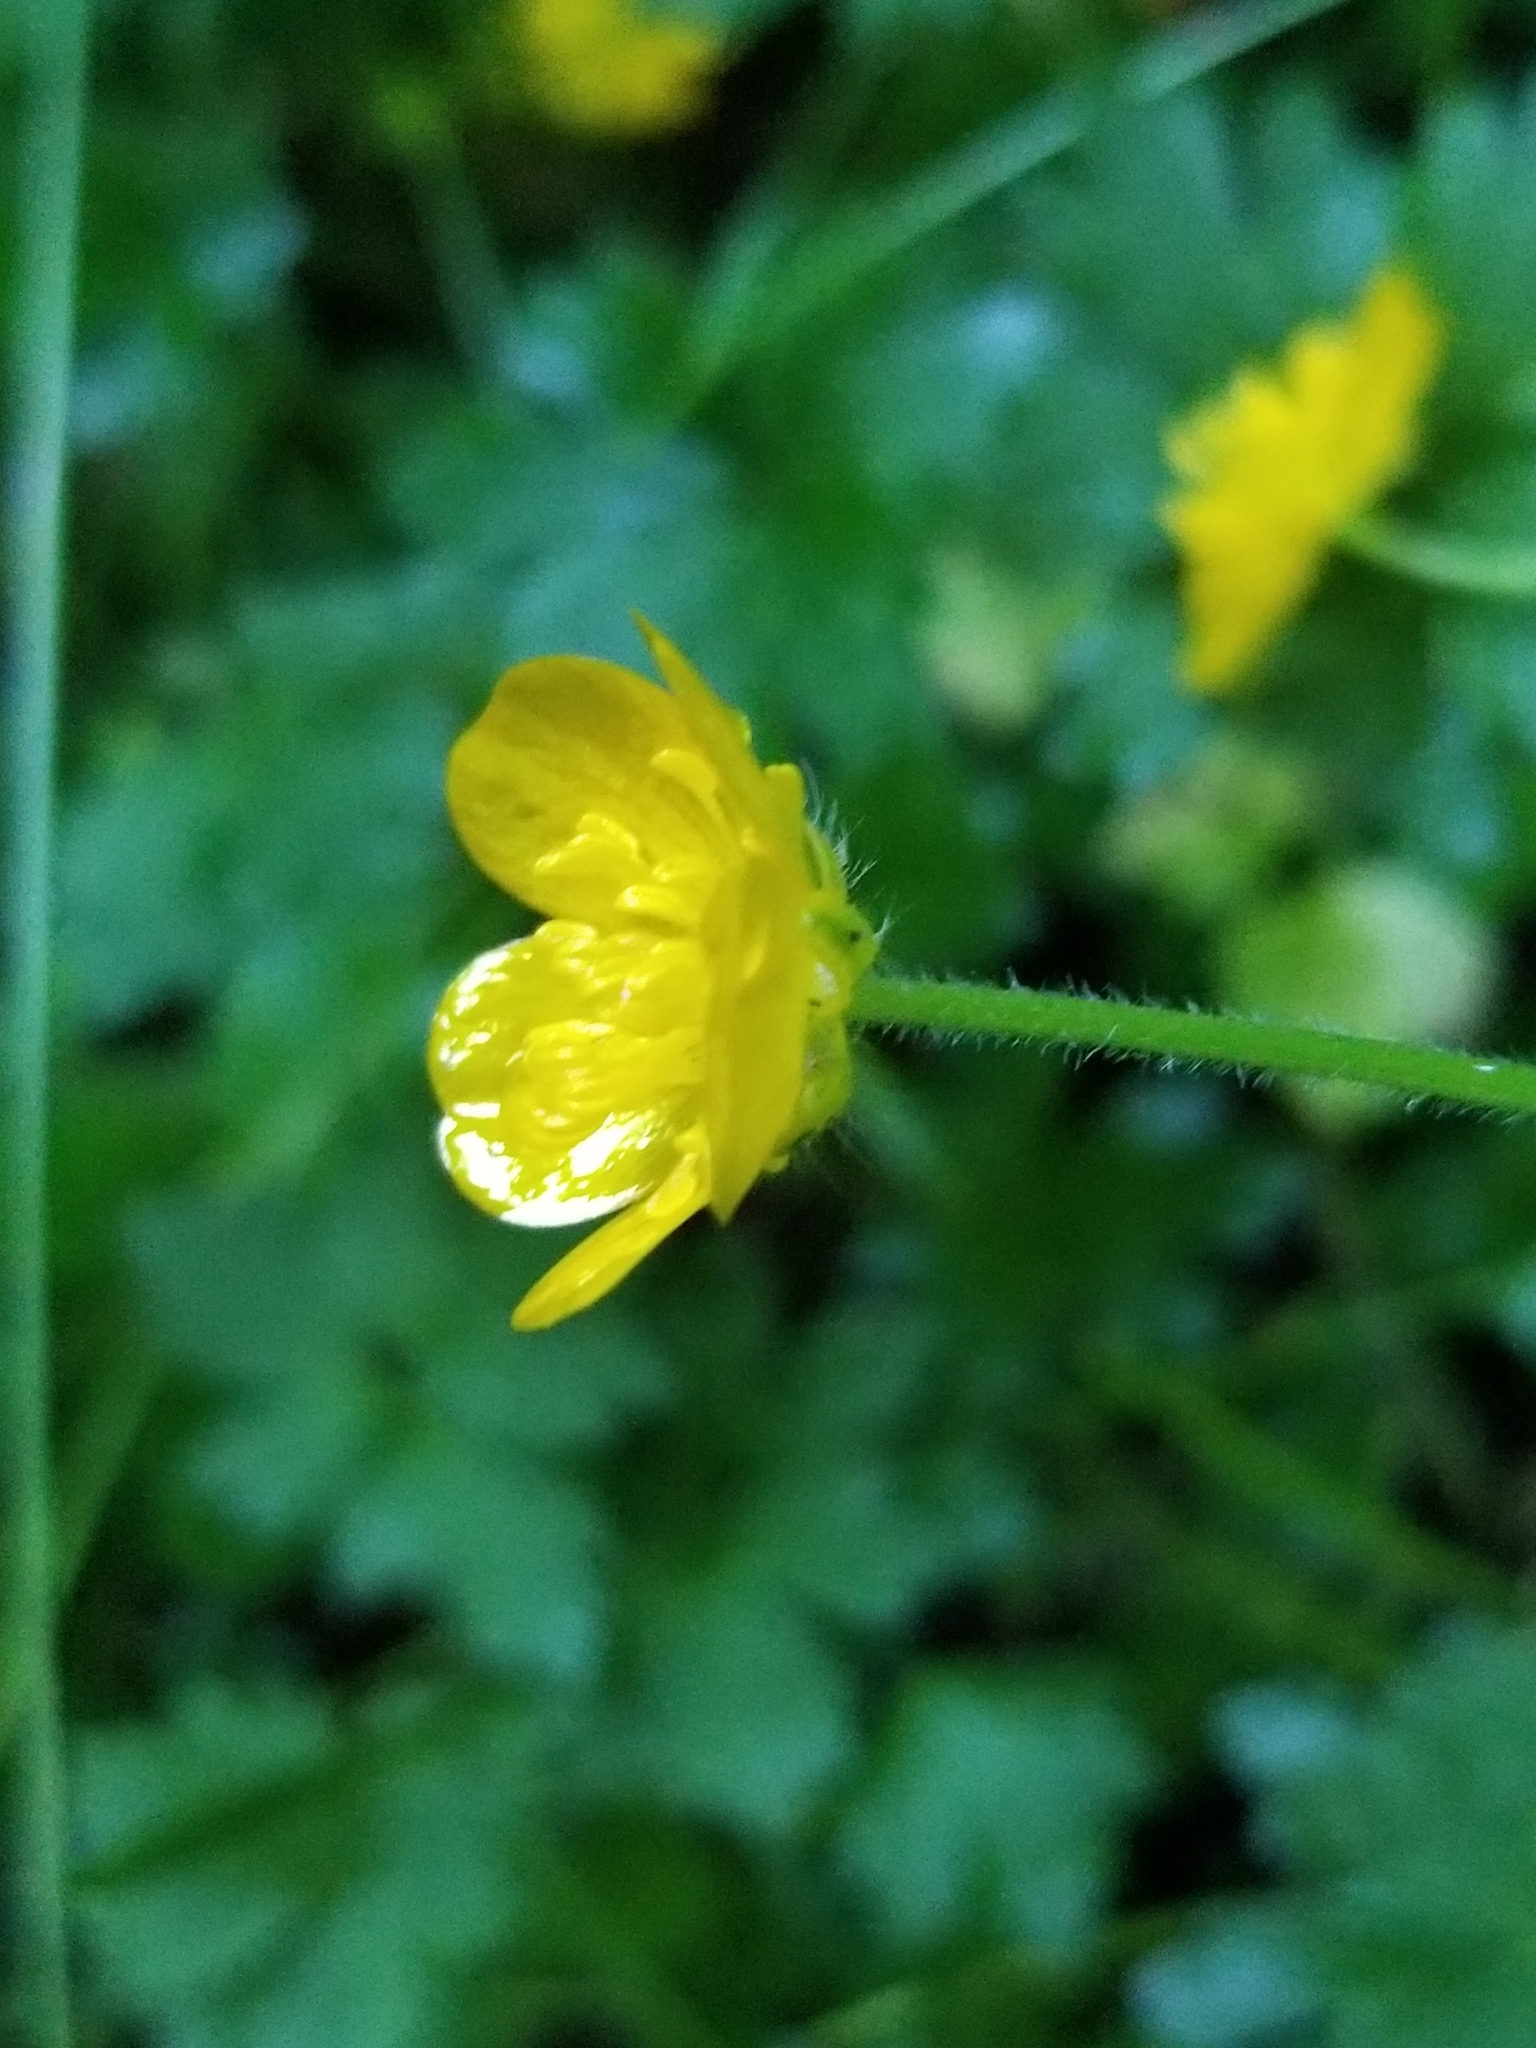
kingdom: Plantae
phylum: Tracheophyta
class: Magnoliopsida
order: Ranunculales
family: Ranunculaceae
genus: Ranunculus
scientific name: Ranunculus repens
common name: Creeping buttercup
